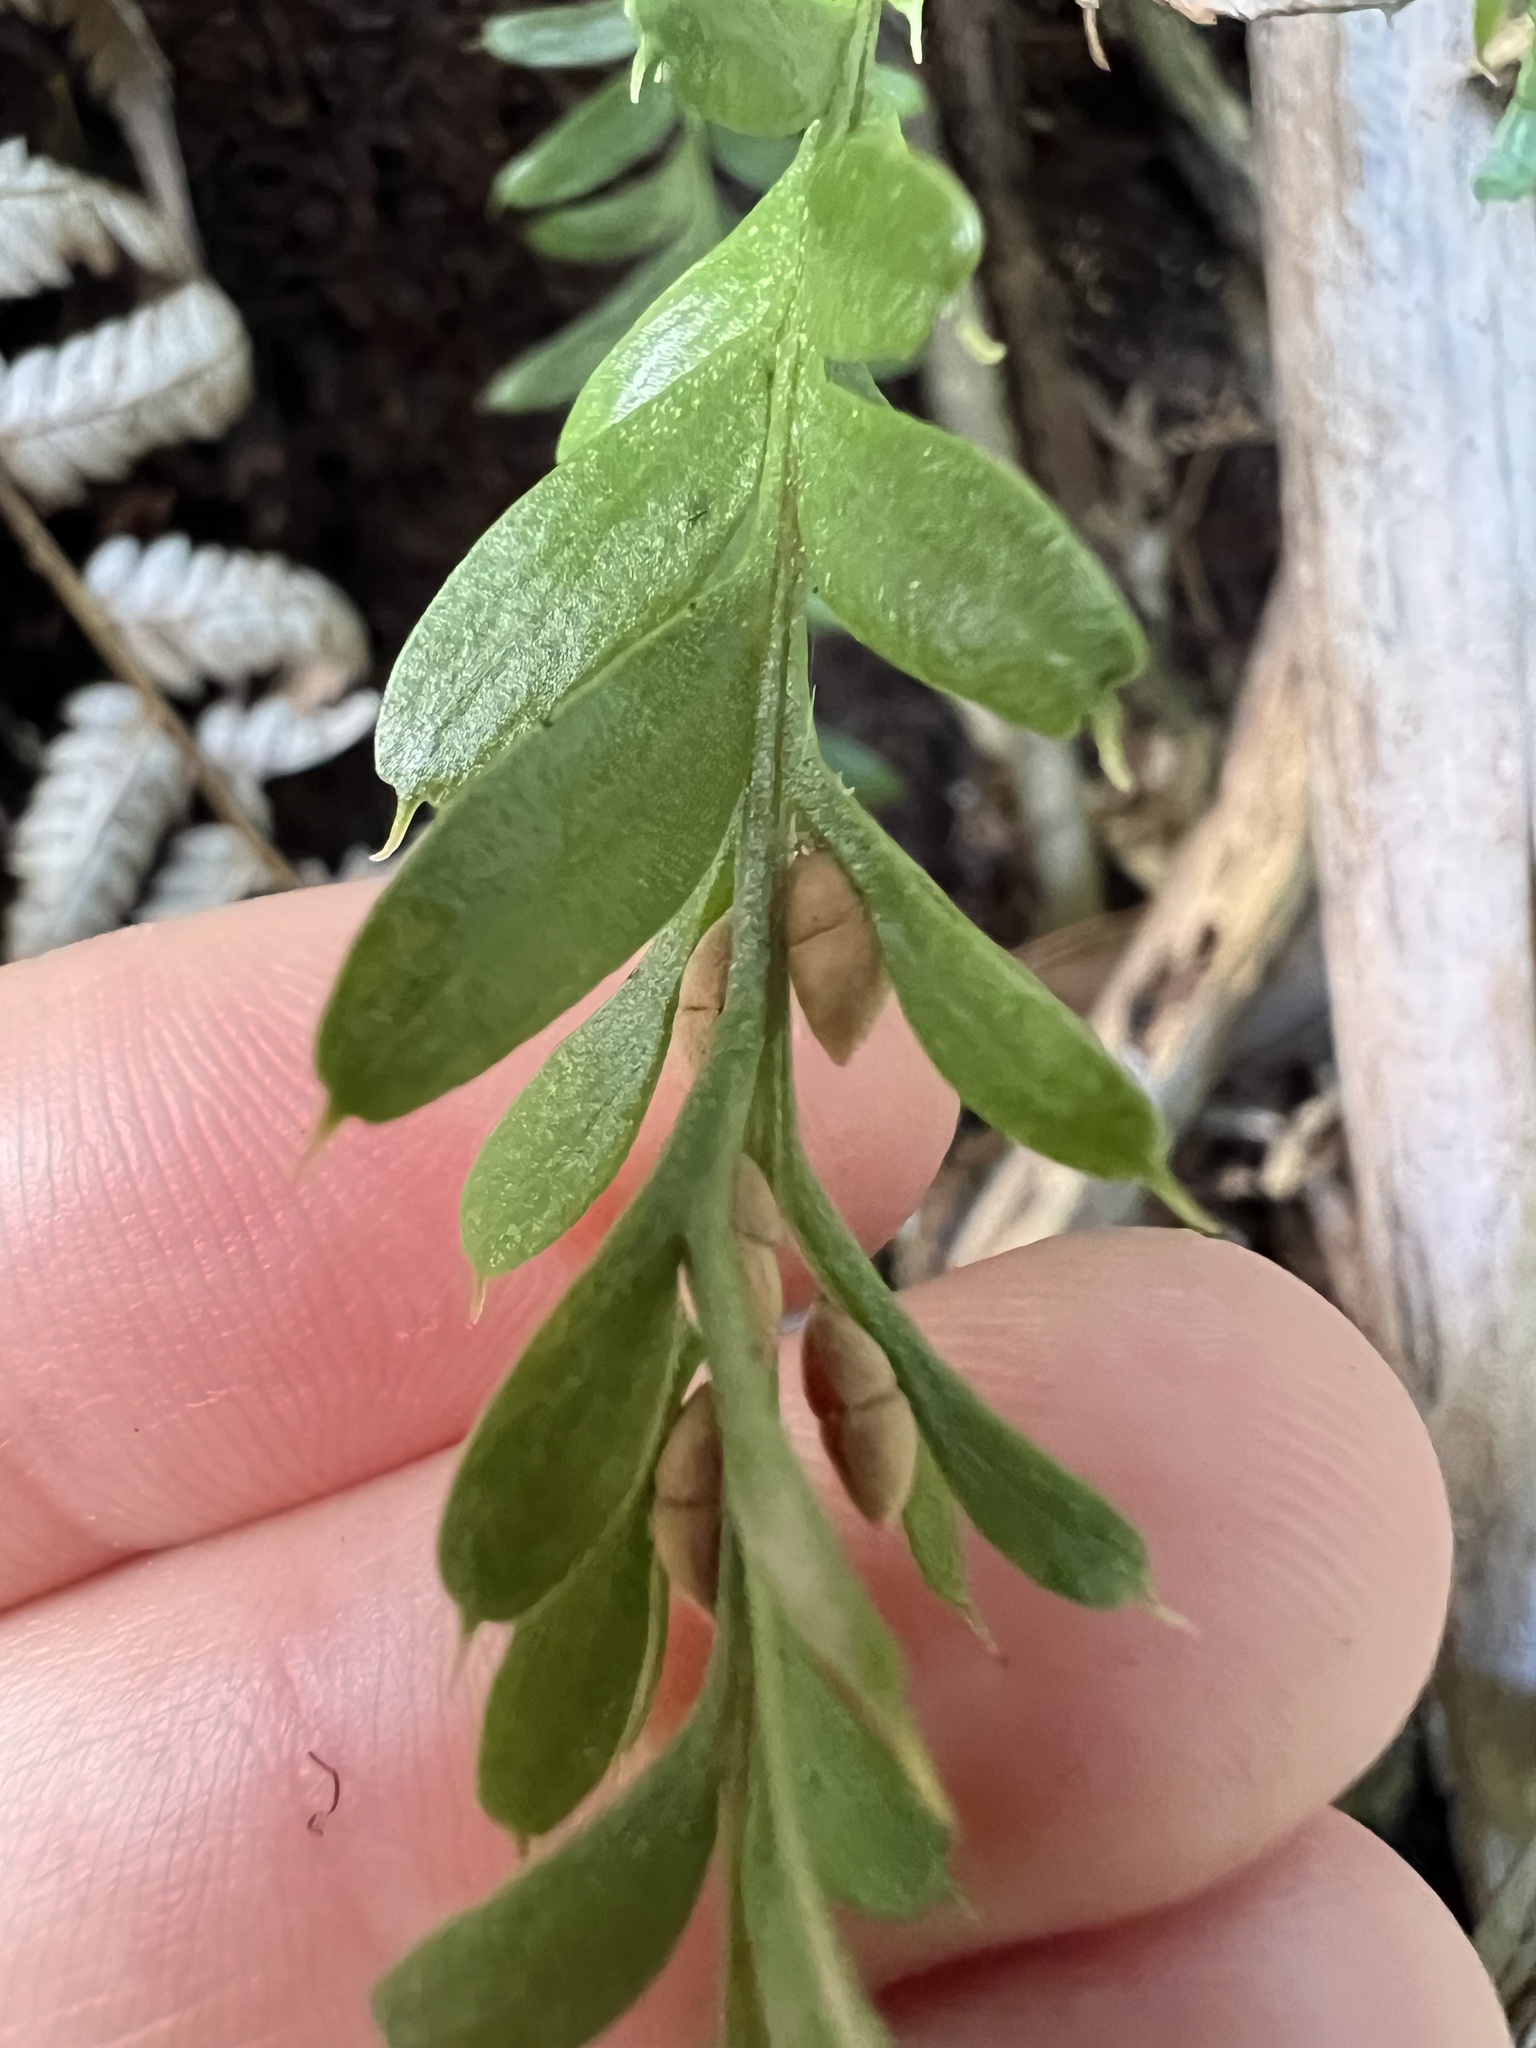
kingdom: Plantae
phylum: Tracheophyta
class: Polypodiopsida
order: Psilotales
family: Psilotaceae
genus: Tmesipteris
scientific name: Tmesipteris tannensis
